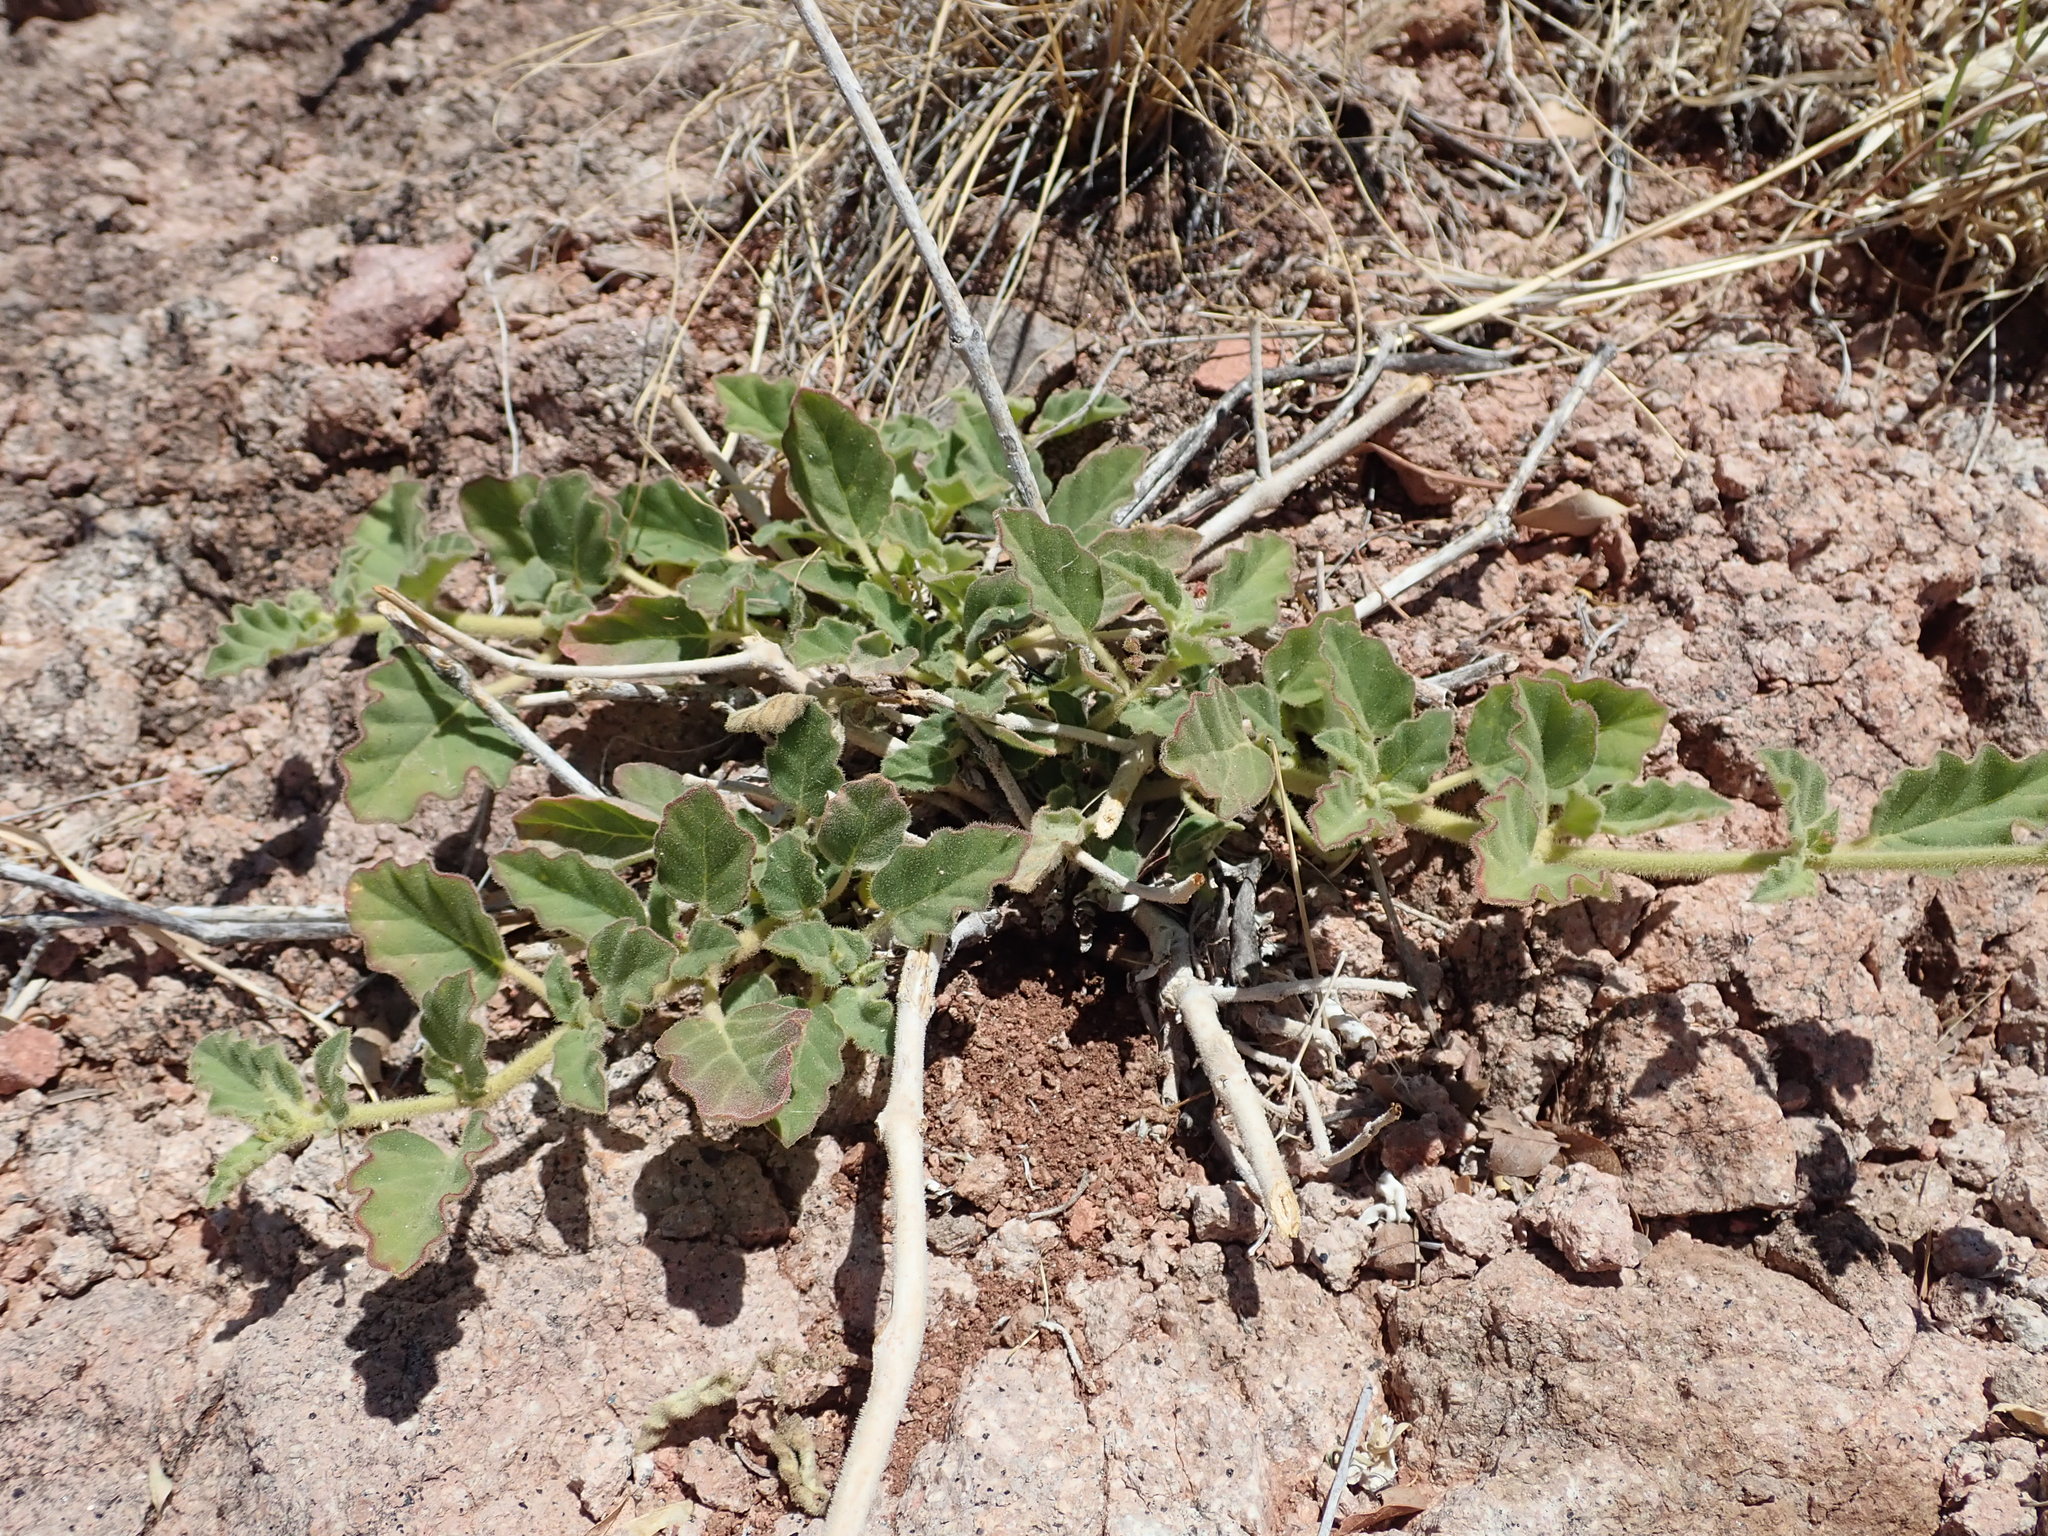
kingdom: Plantae
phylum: Tracheophyta
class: Magnoliopsida
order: Caryophyllales
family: Nyctaginaceae
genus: Boerhavia
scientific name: Boerhavia coccinea
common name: Scarlet spiderling
